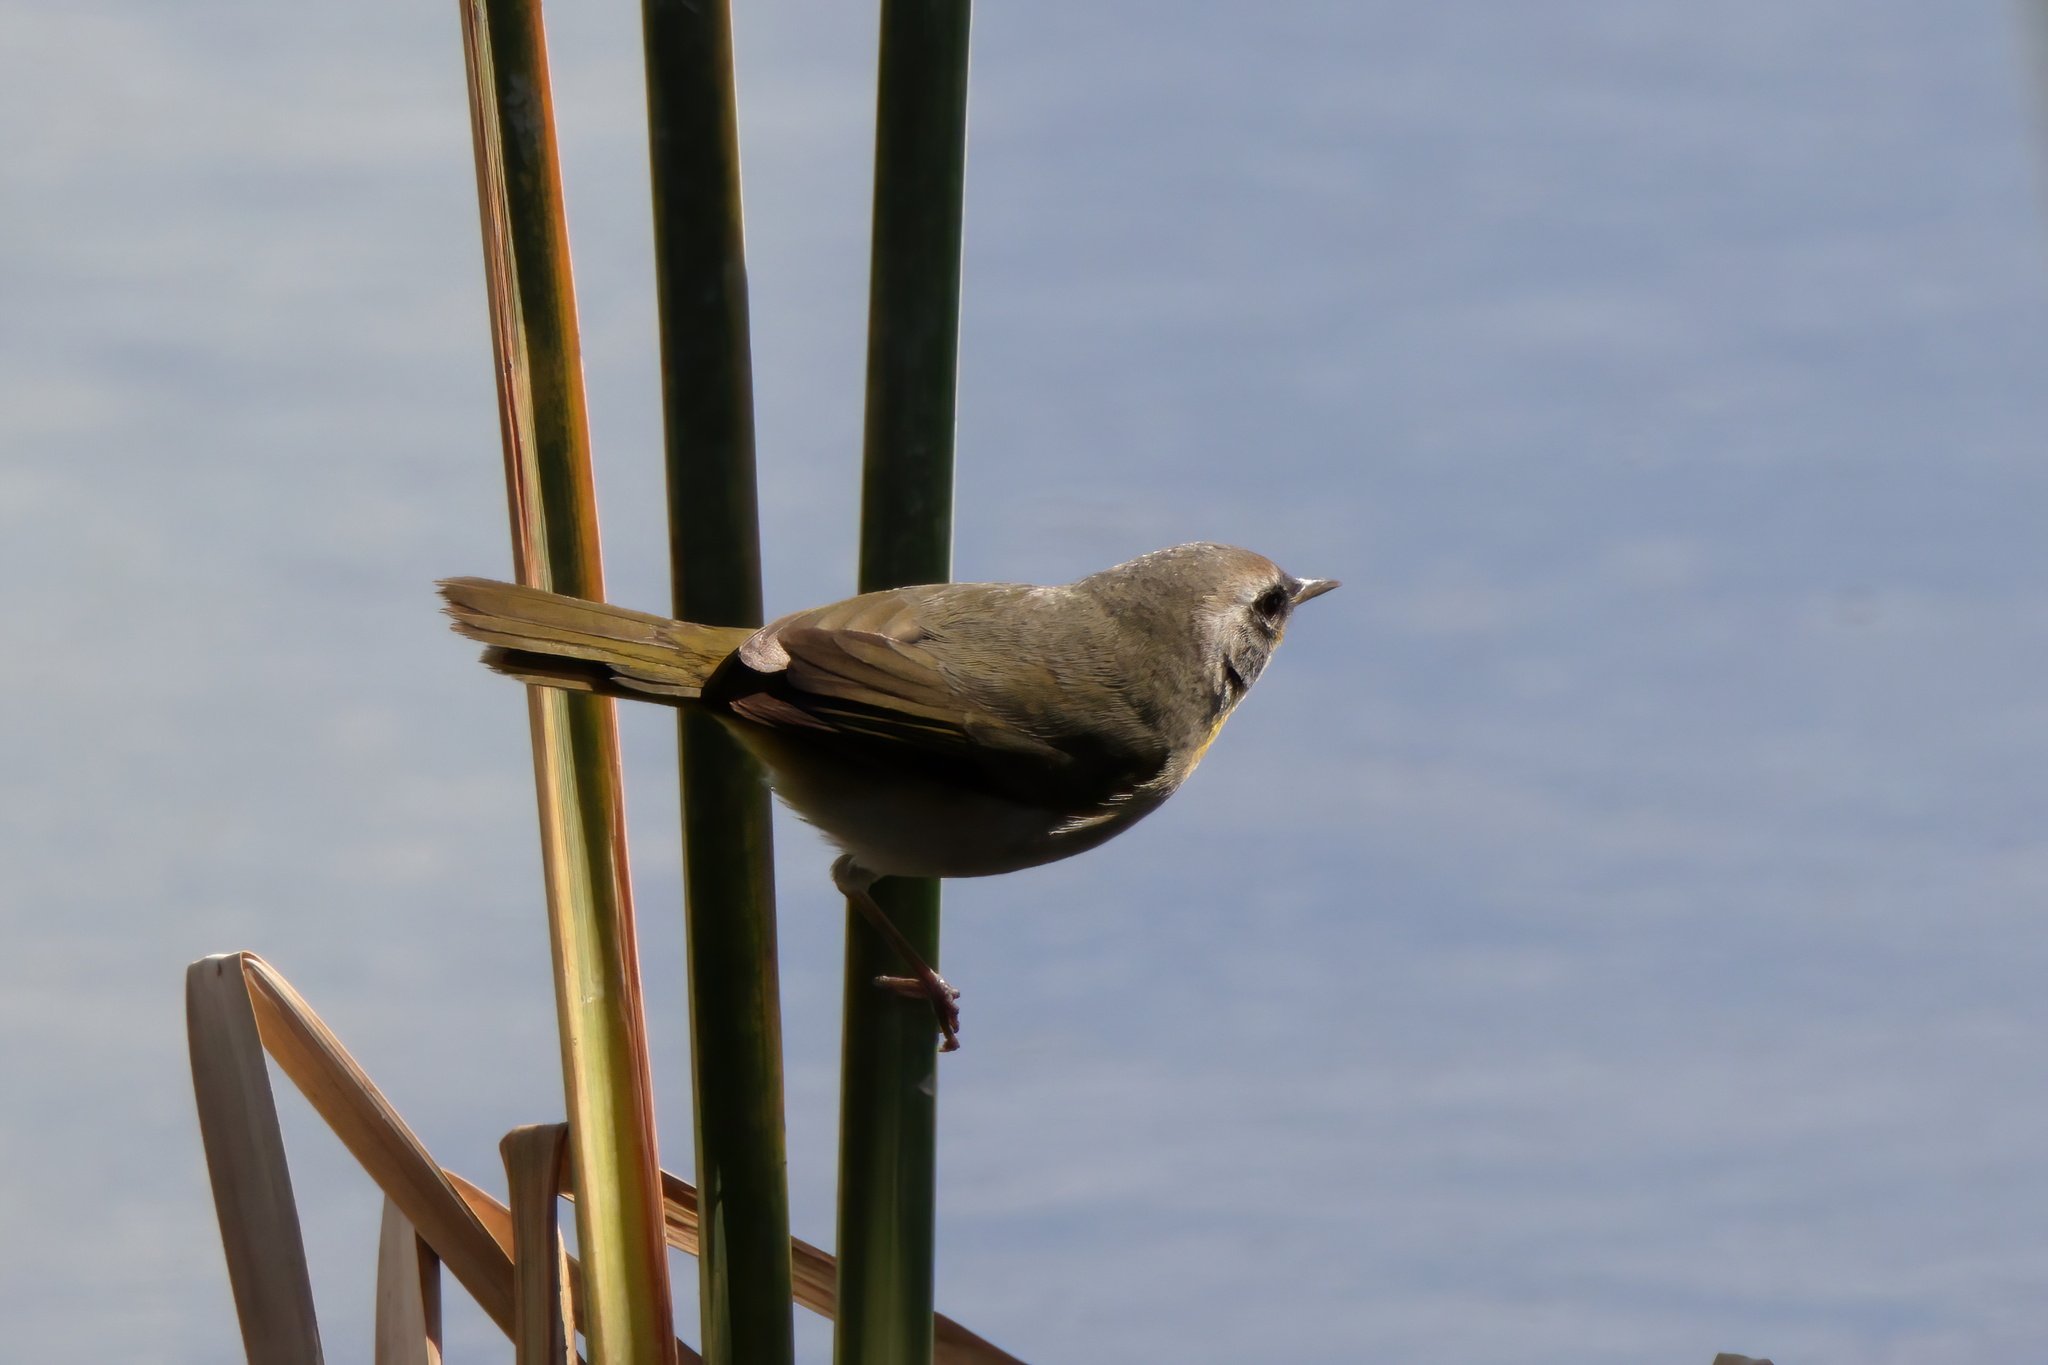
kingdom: Animalia
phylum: Chordata
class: Aves
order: Passeriformes
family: Parulidae
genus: Geothlypis
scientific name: Geothlypis trichas
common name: Common yellowthroat
